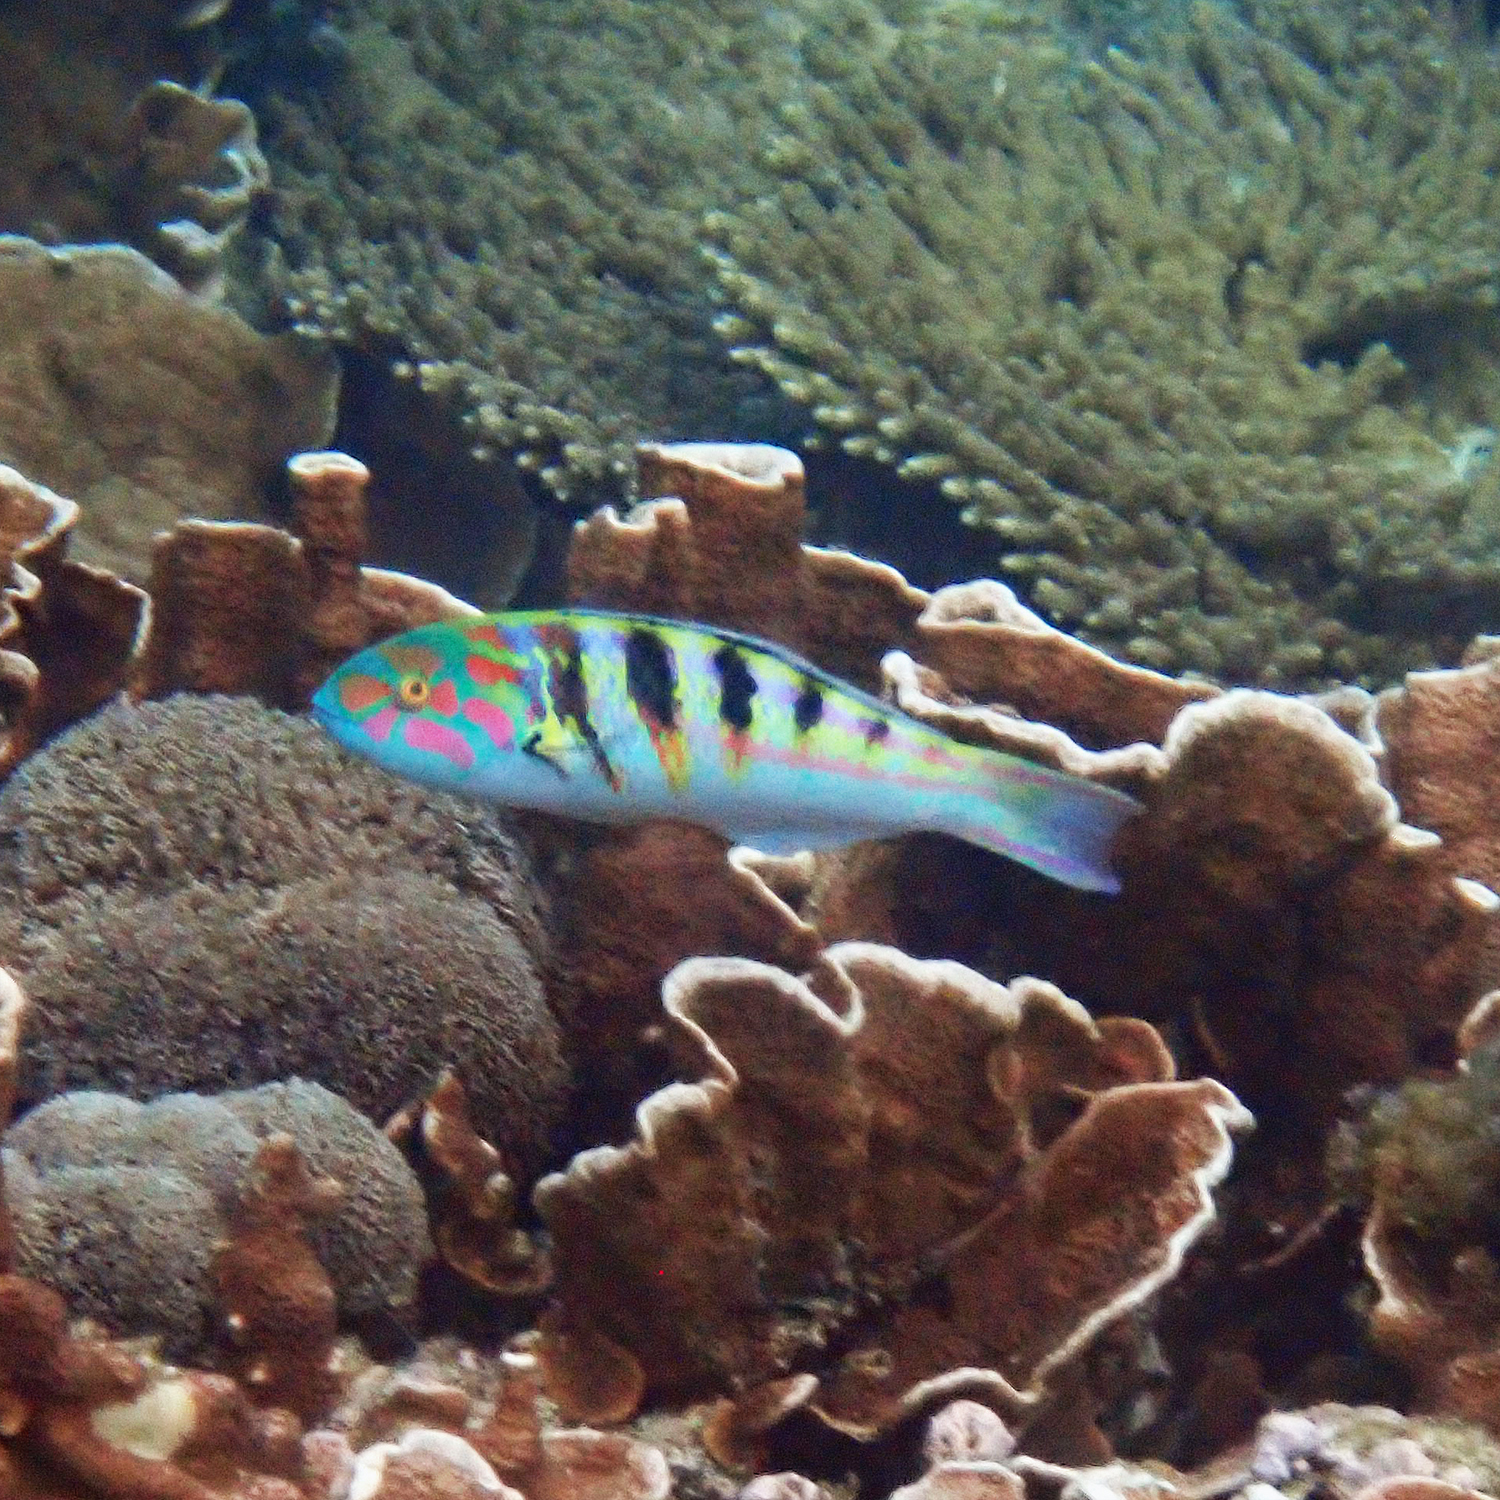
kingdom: Animalia
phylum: Chordata
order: Perciformes
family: Labridae
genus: Thalassoma
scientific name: Thalassoma hardwicke
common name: Sixbar wrasse
